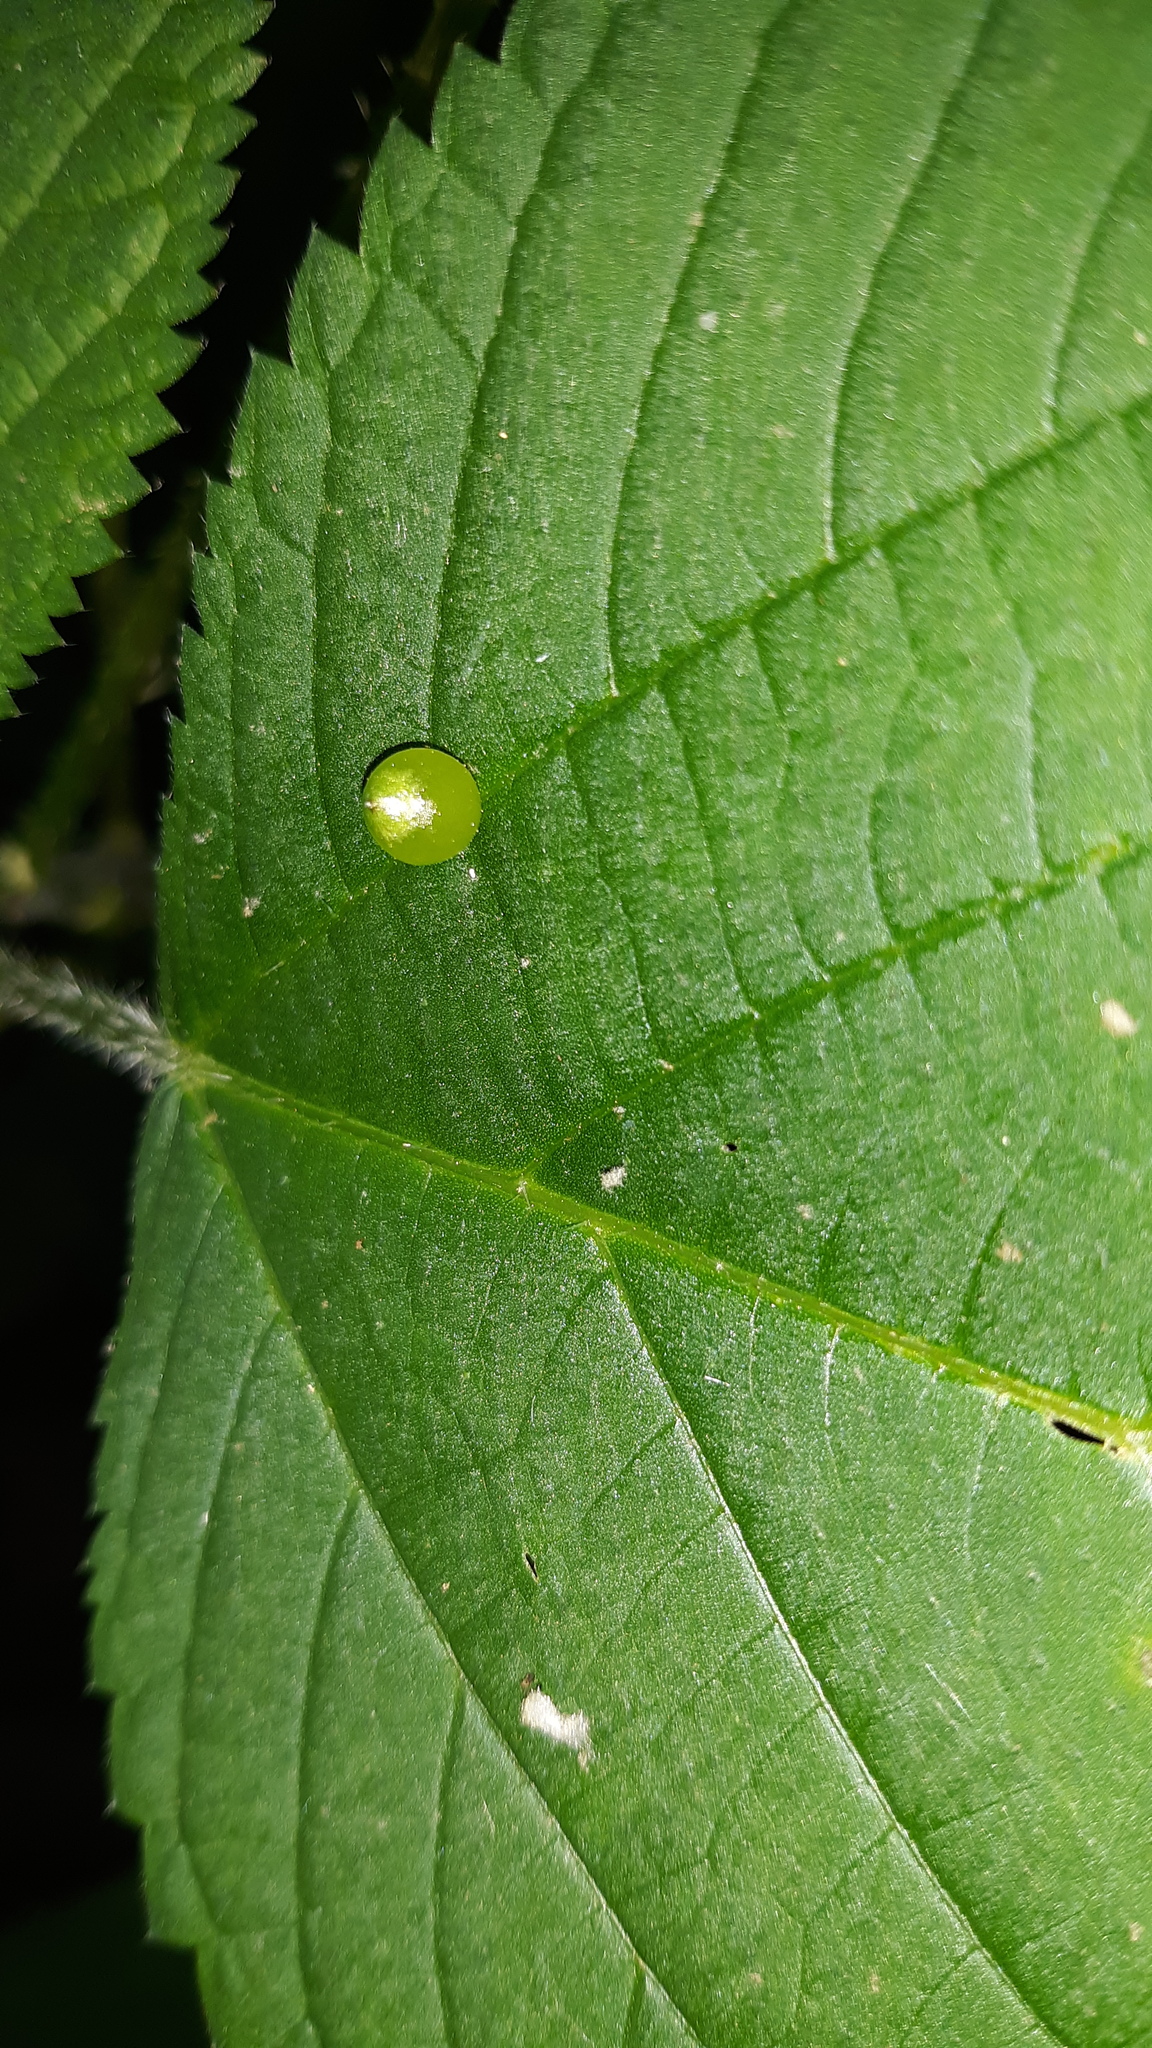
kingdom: Animalia
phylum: Arthropoda
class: Insecta
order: Diptera
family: Cecidomyiidae
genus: Dasineura
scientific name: Dasineura investita
